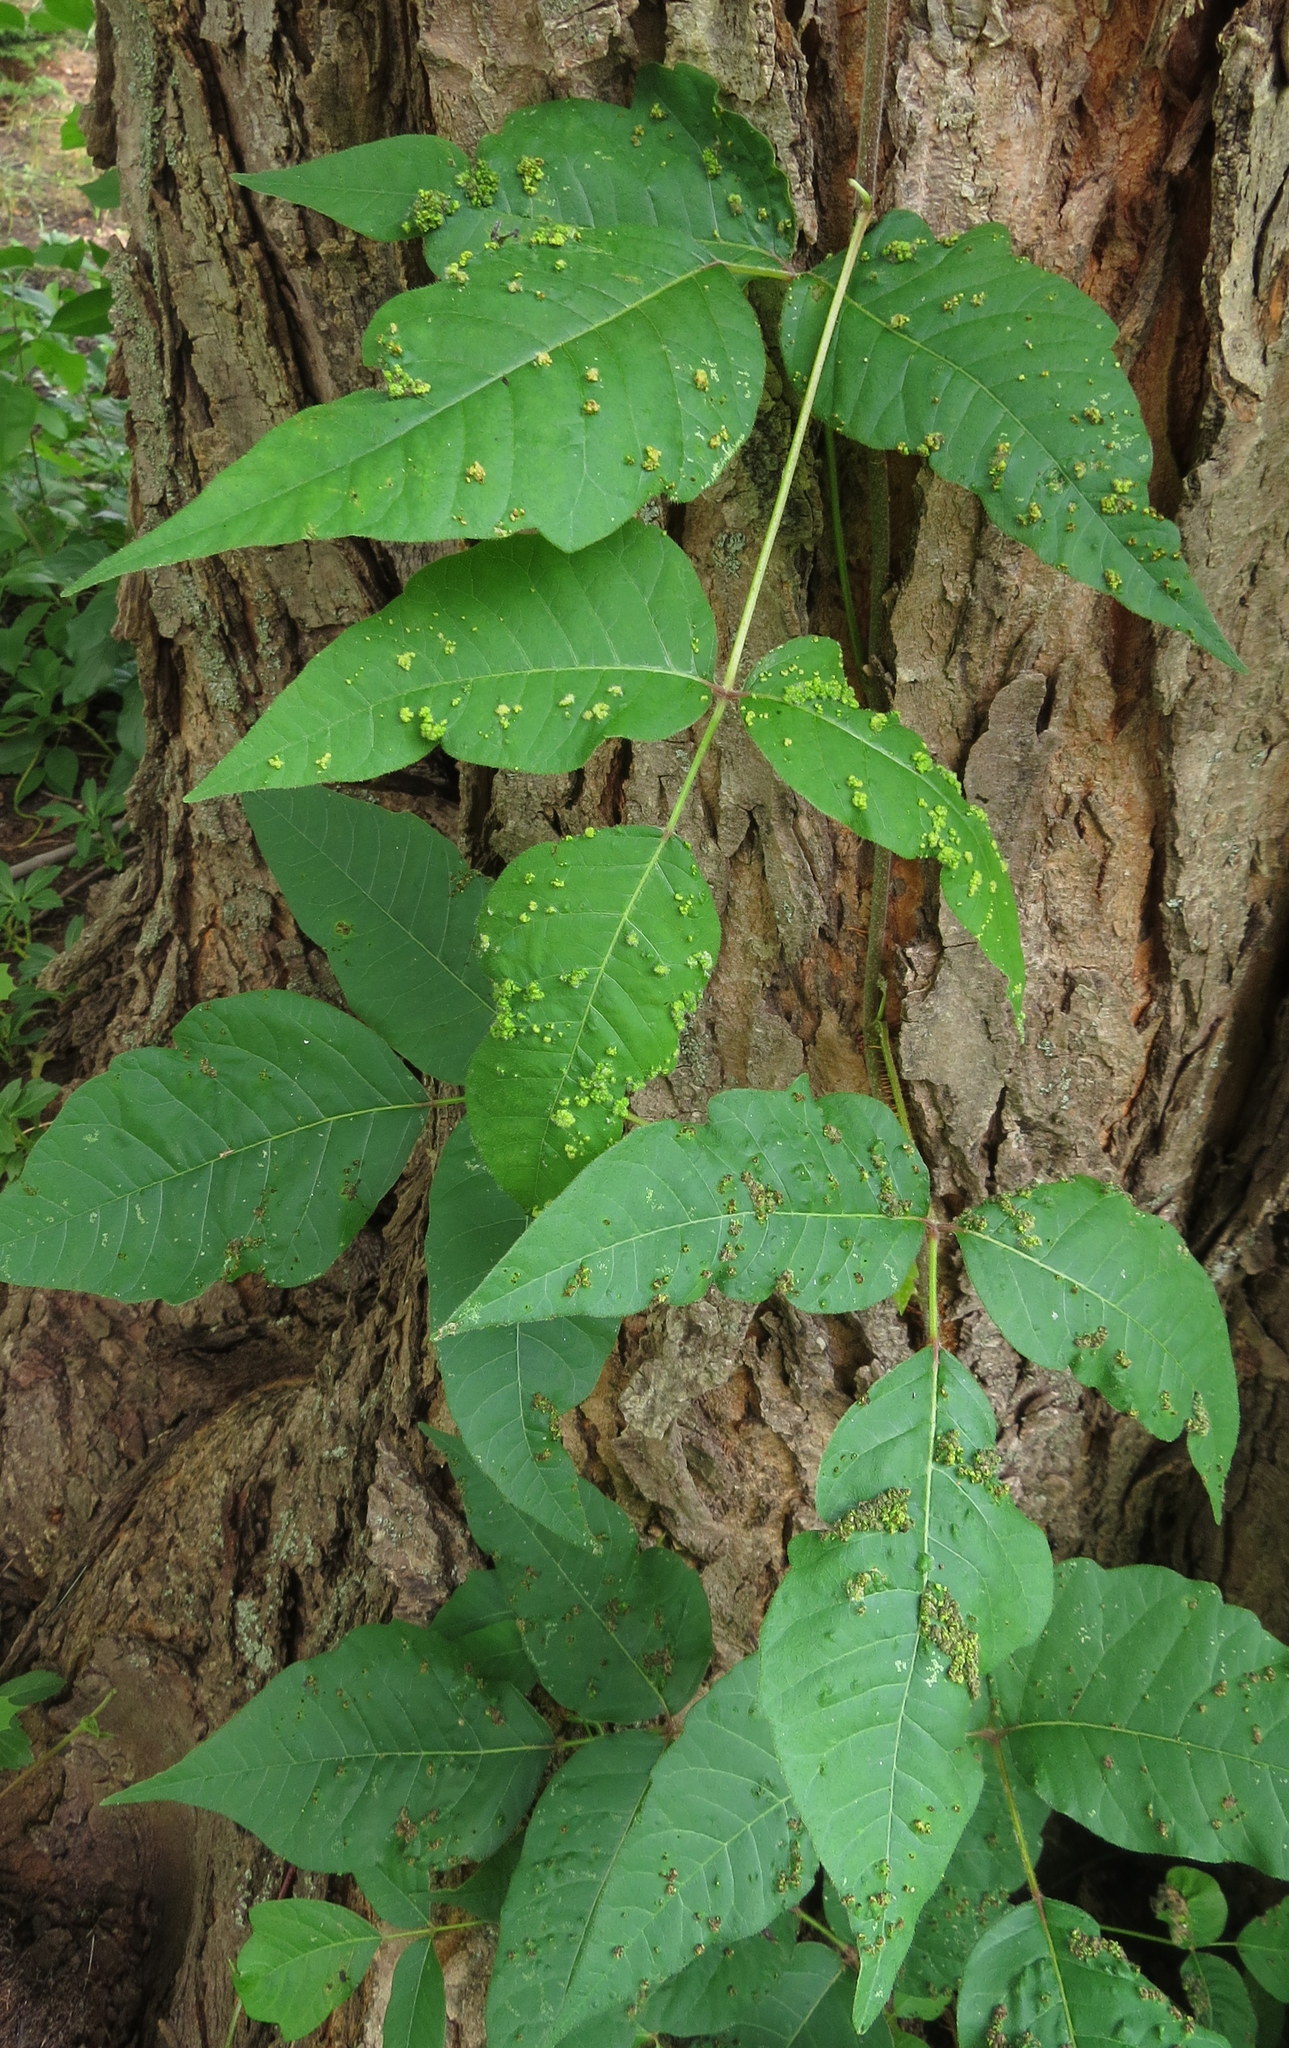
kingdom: Animalia
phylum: Arthropoda
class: Arachnida
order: Trombidiformes
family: Eriophyidae
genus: Aculops
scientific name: Aculops
